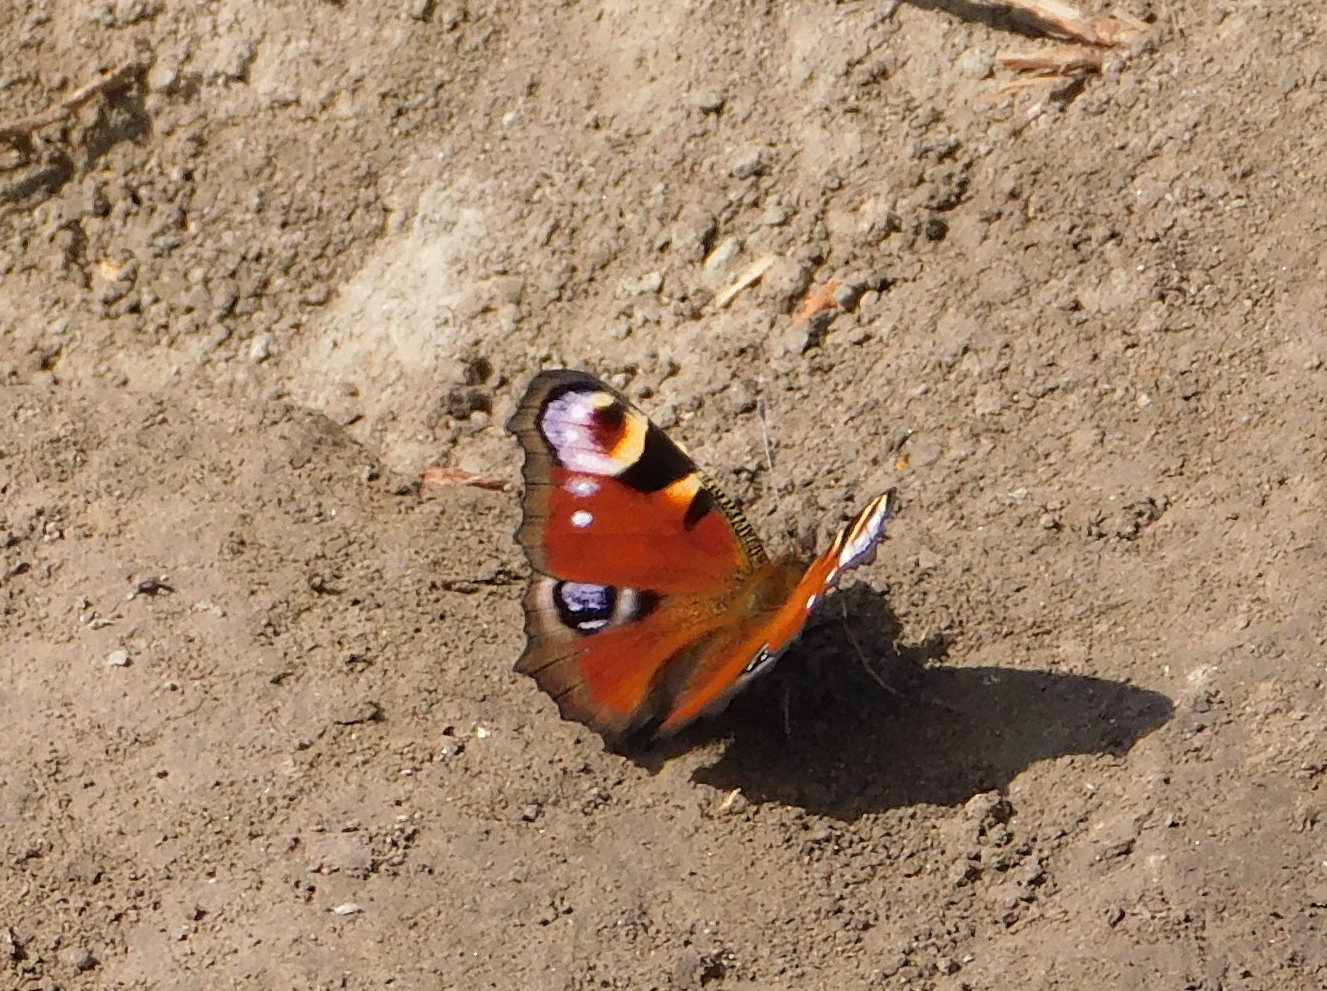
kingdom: Animalia
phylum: Arthropoda
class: Insecta
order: Lepidoptera
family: Nymphalidae
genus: Aglais
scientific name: Aglais io
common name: Peacock
